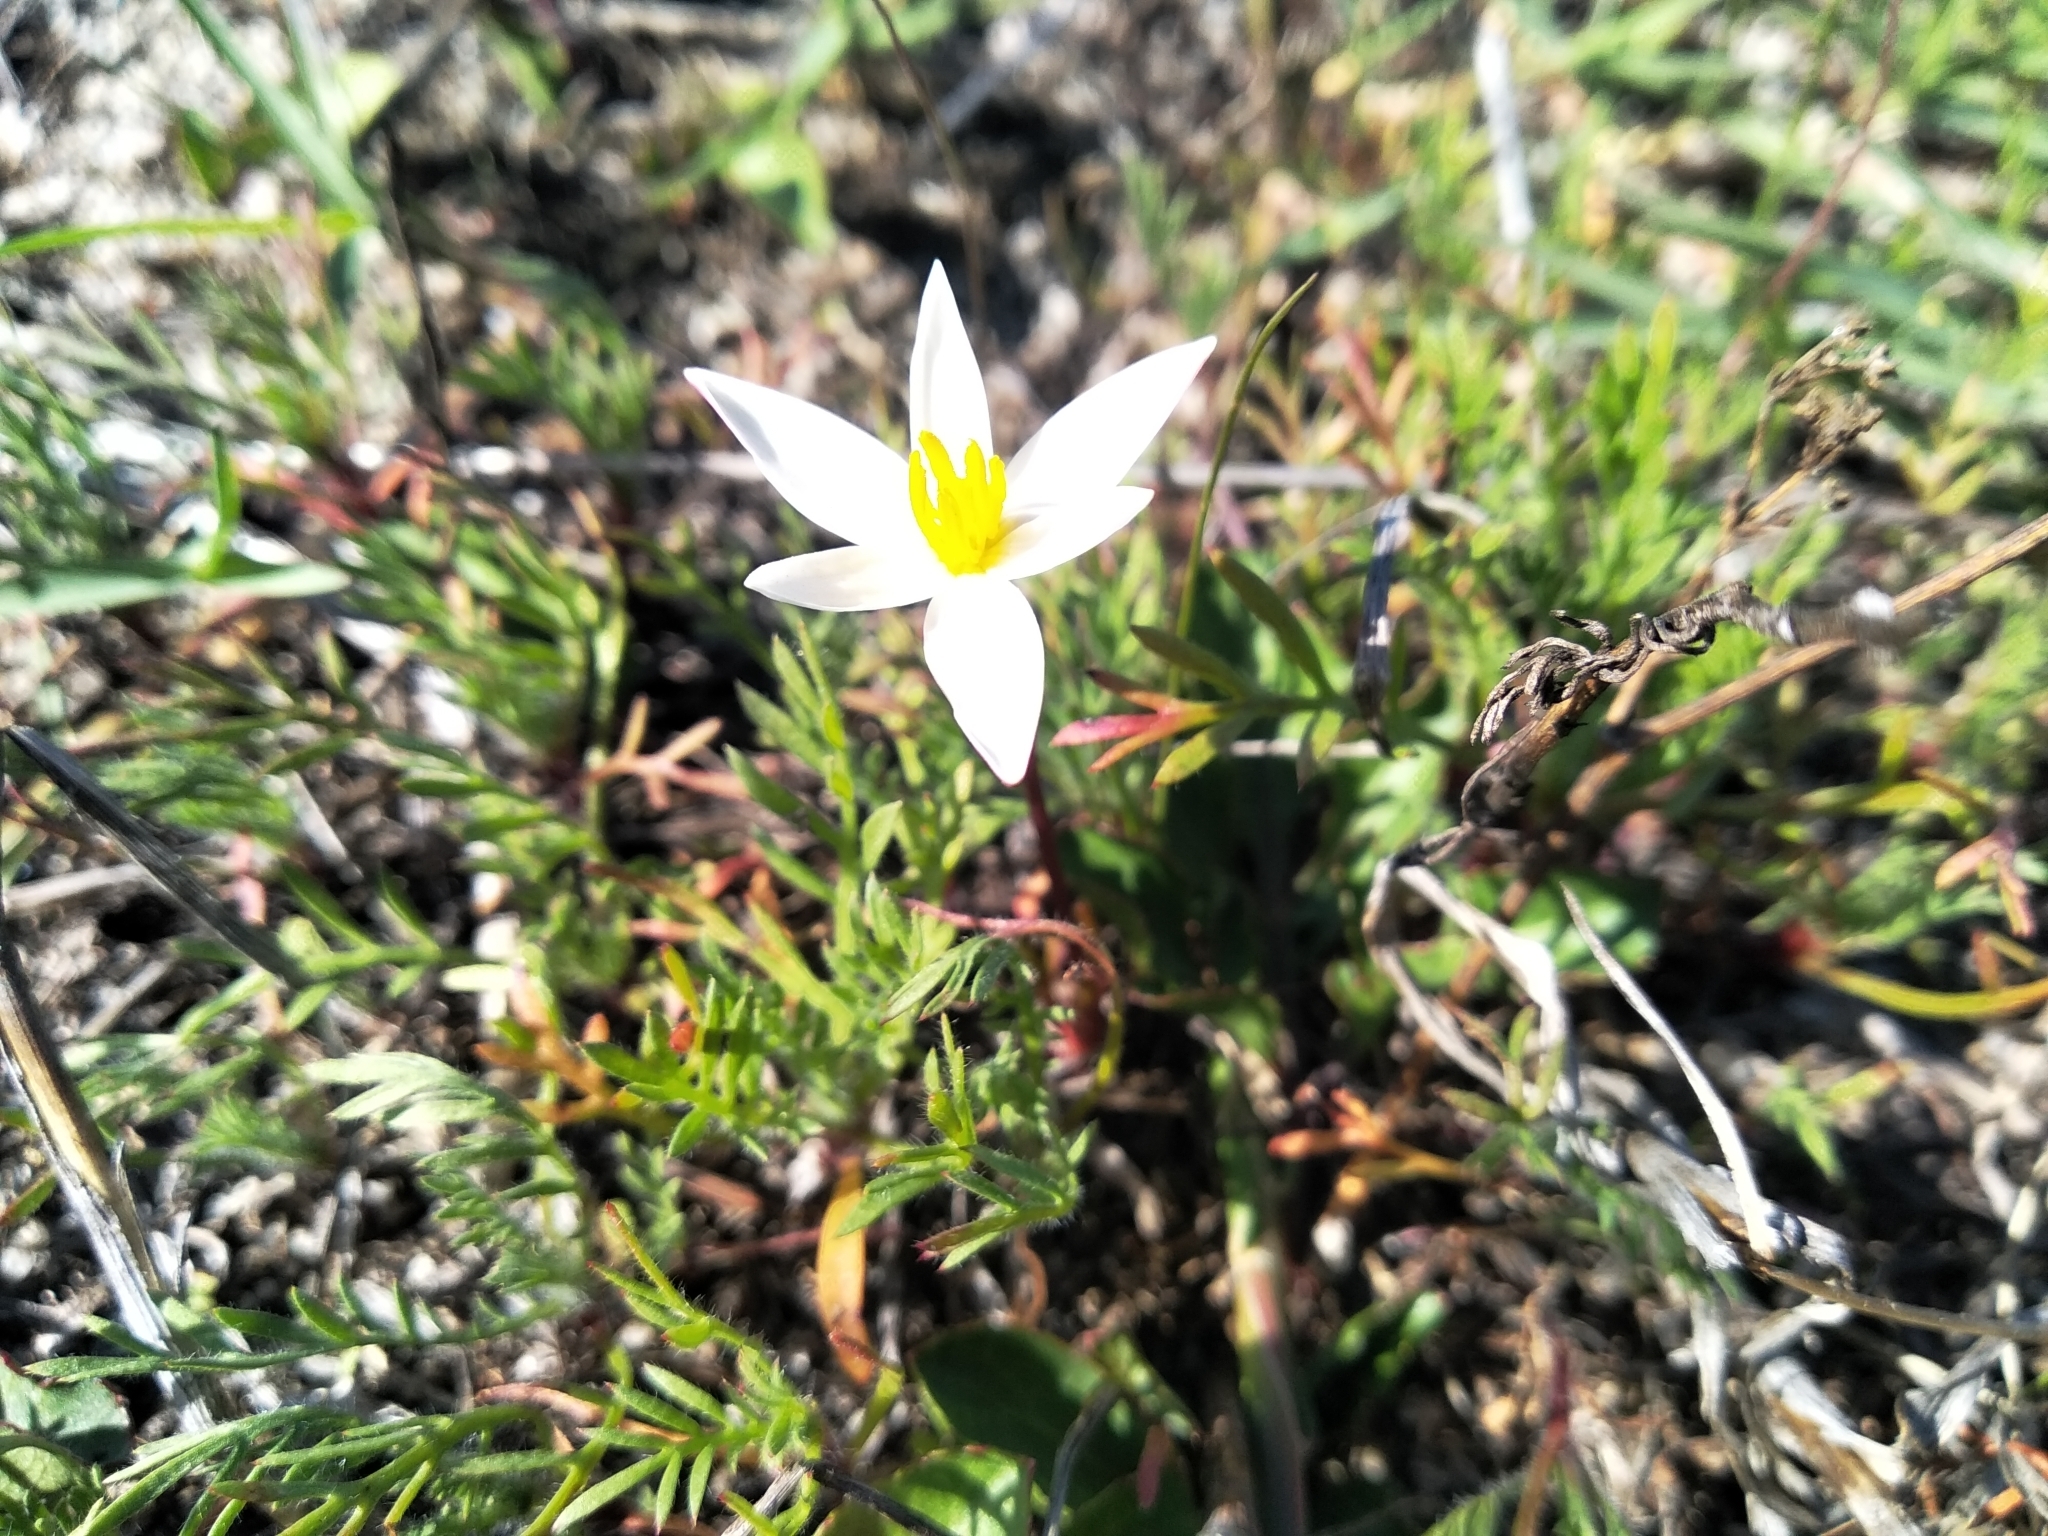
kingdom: Plantae
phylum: Tracheophyta
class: Liliopsida
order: Asparagales
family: Hypoxidaceae
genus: Pauridia
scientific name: Pauridia alba
